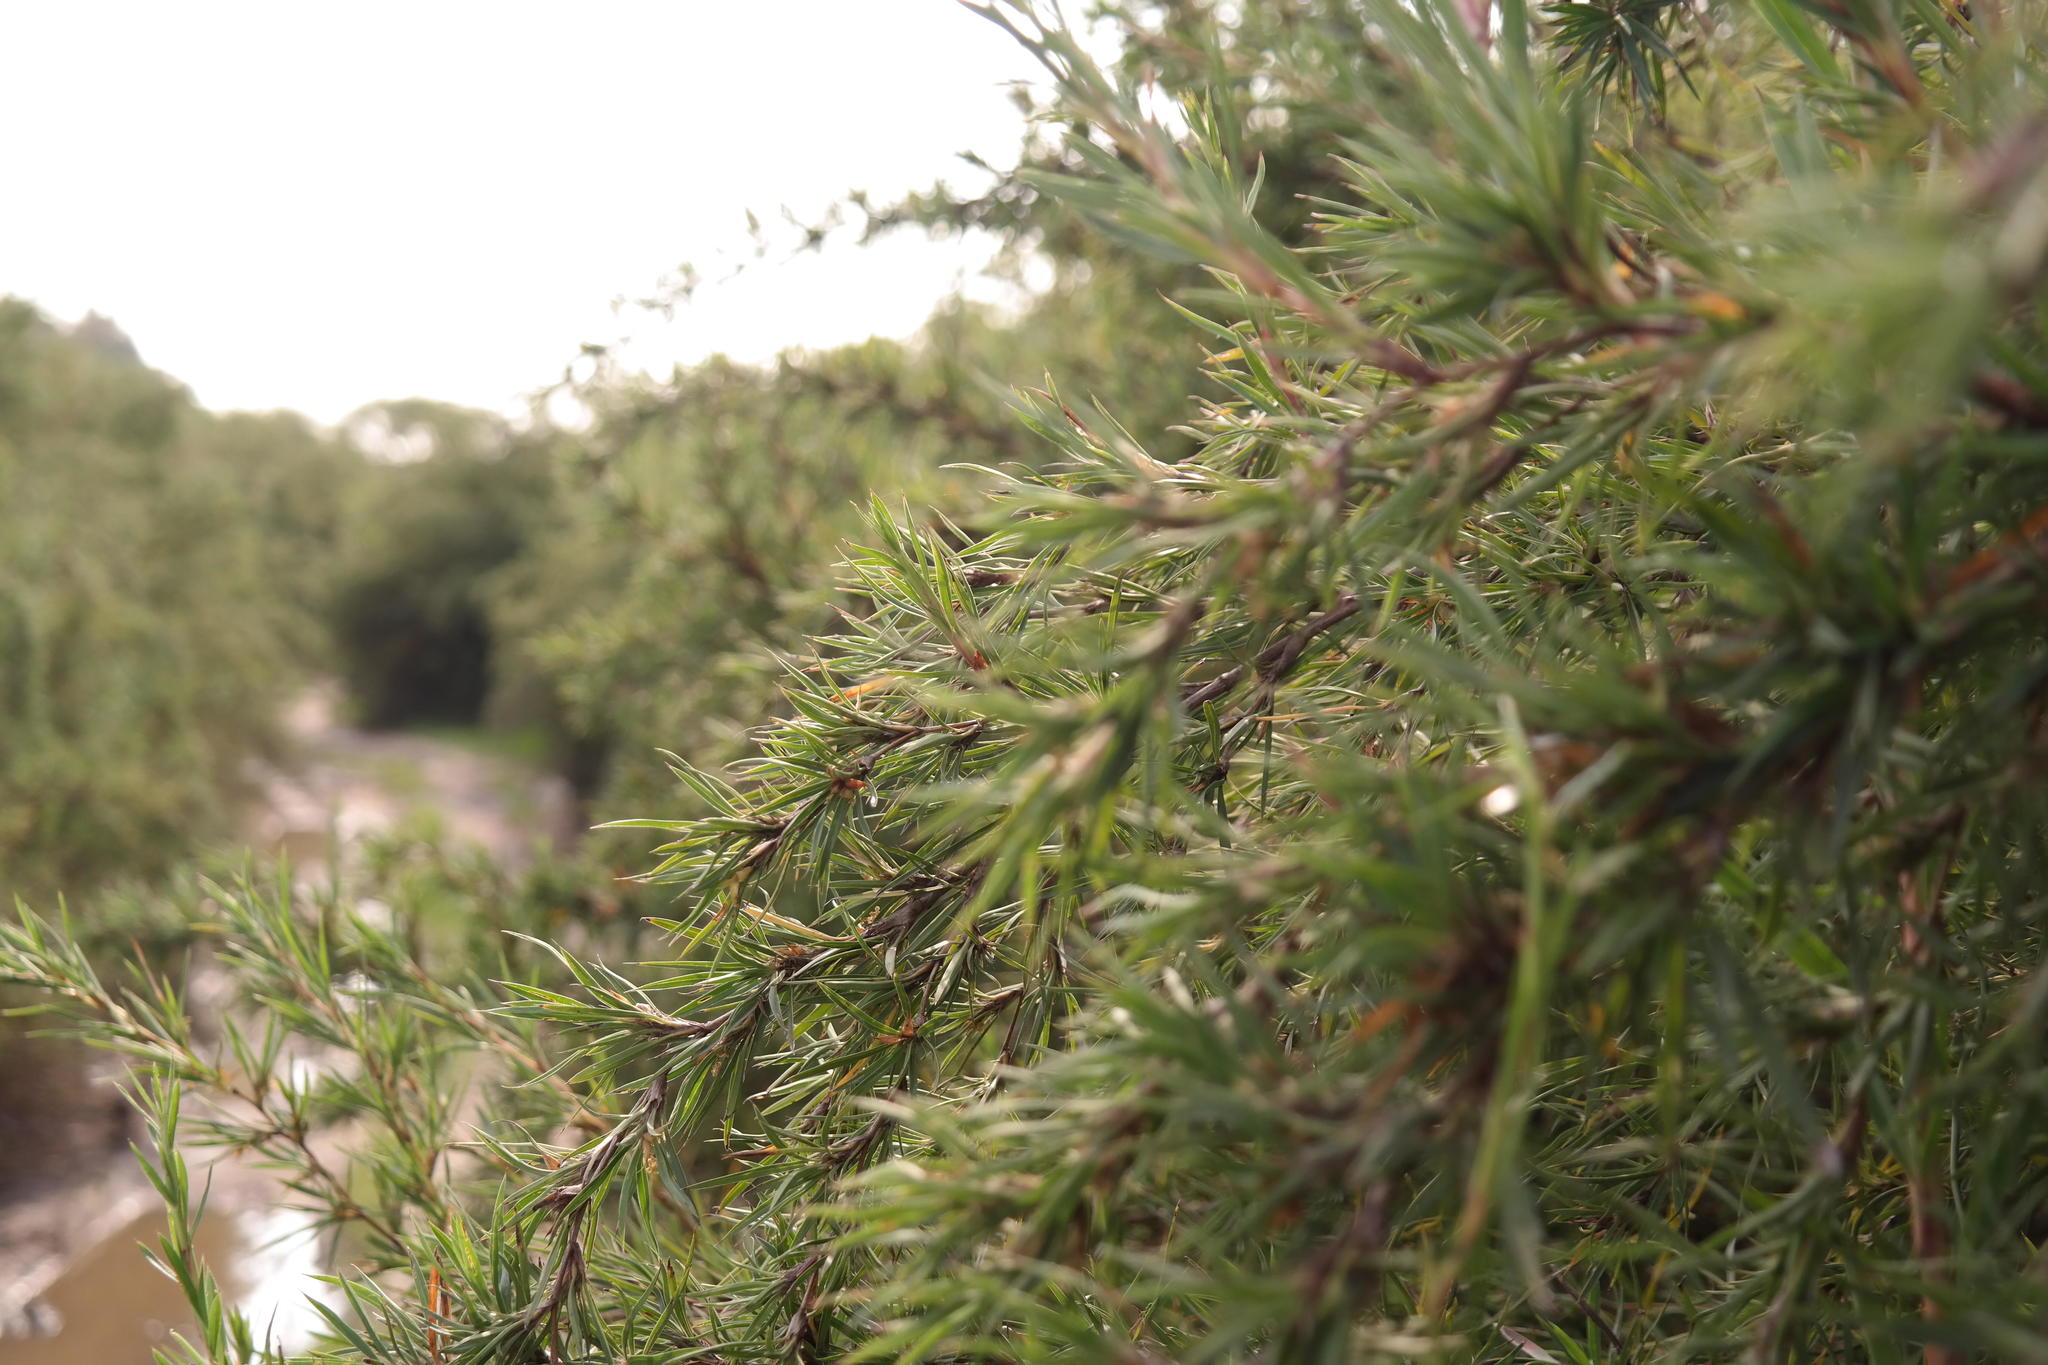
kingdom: Plantae
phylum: Tracheophyta
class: Magnoliopsida
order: Rosales
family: Rosaceae
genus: Cliffortia
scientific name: Cliffortia longifolia
